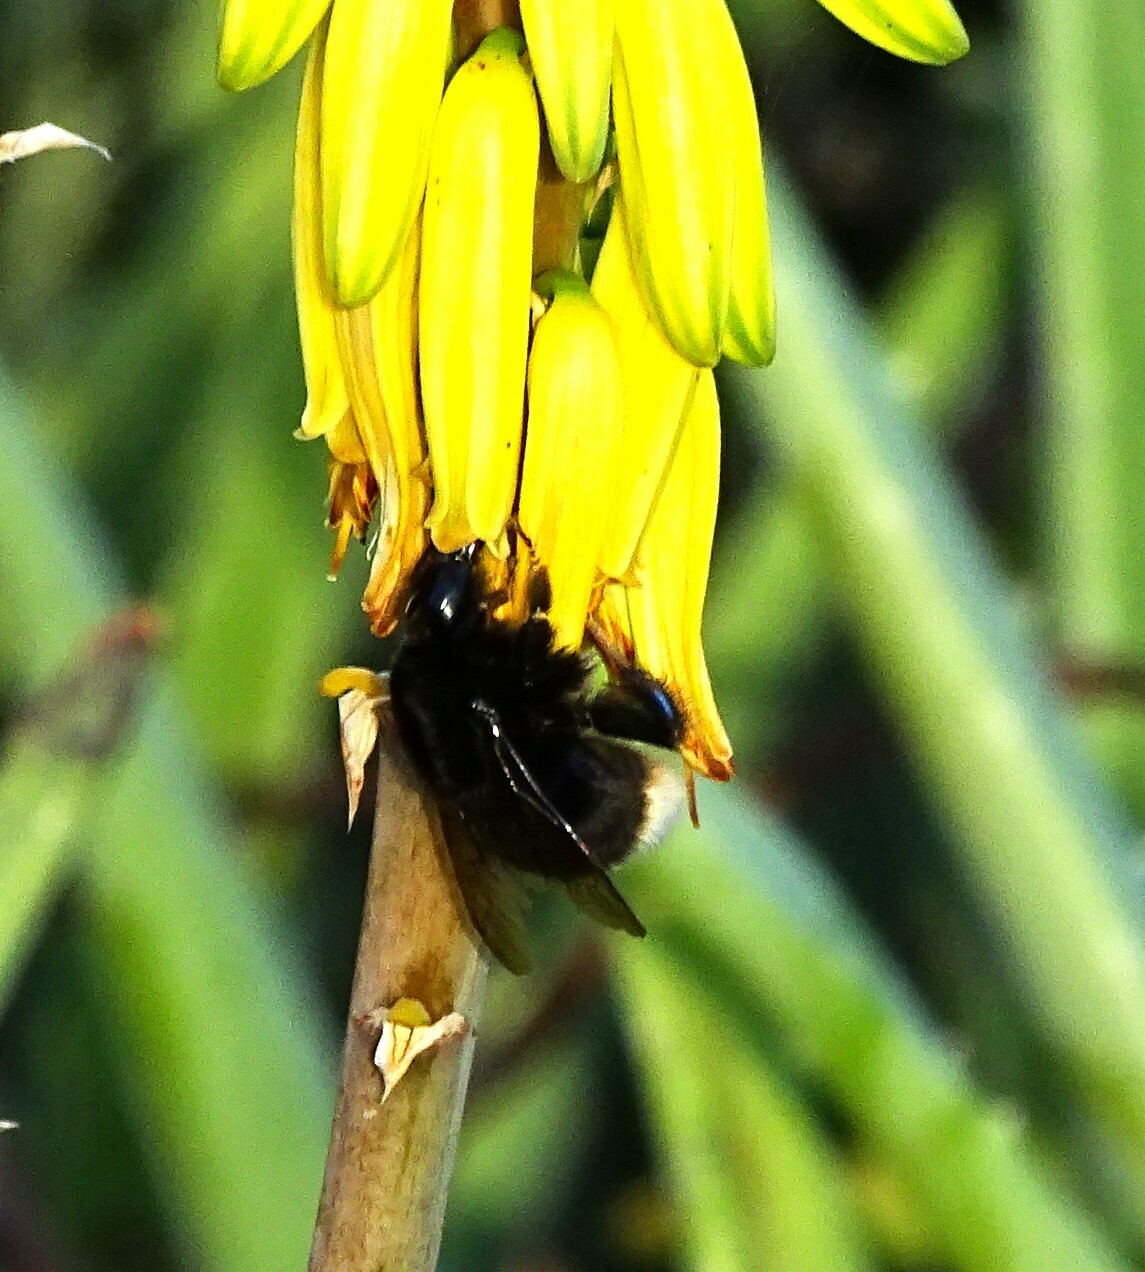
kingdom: Animalia
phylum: Arthropoda
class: Insecta
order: Hymenoptera
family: Apidae
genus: Bombus
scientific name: Bombus terrestris
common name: Buff-tailed bumblebee
